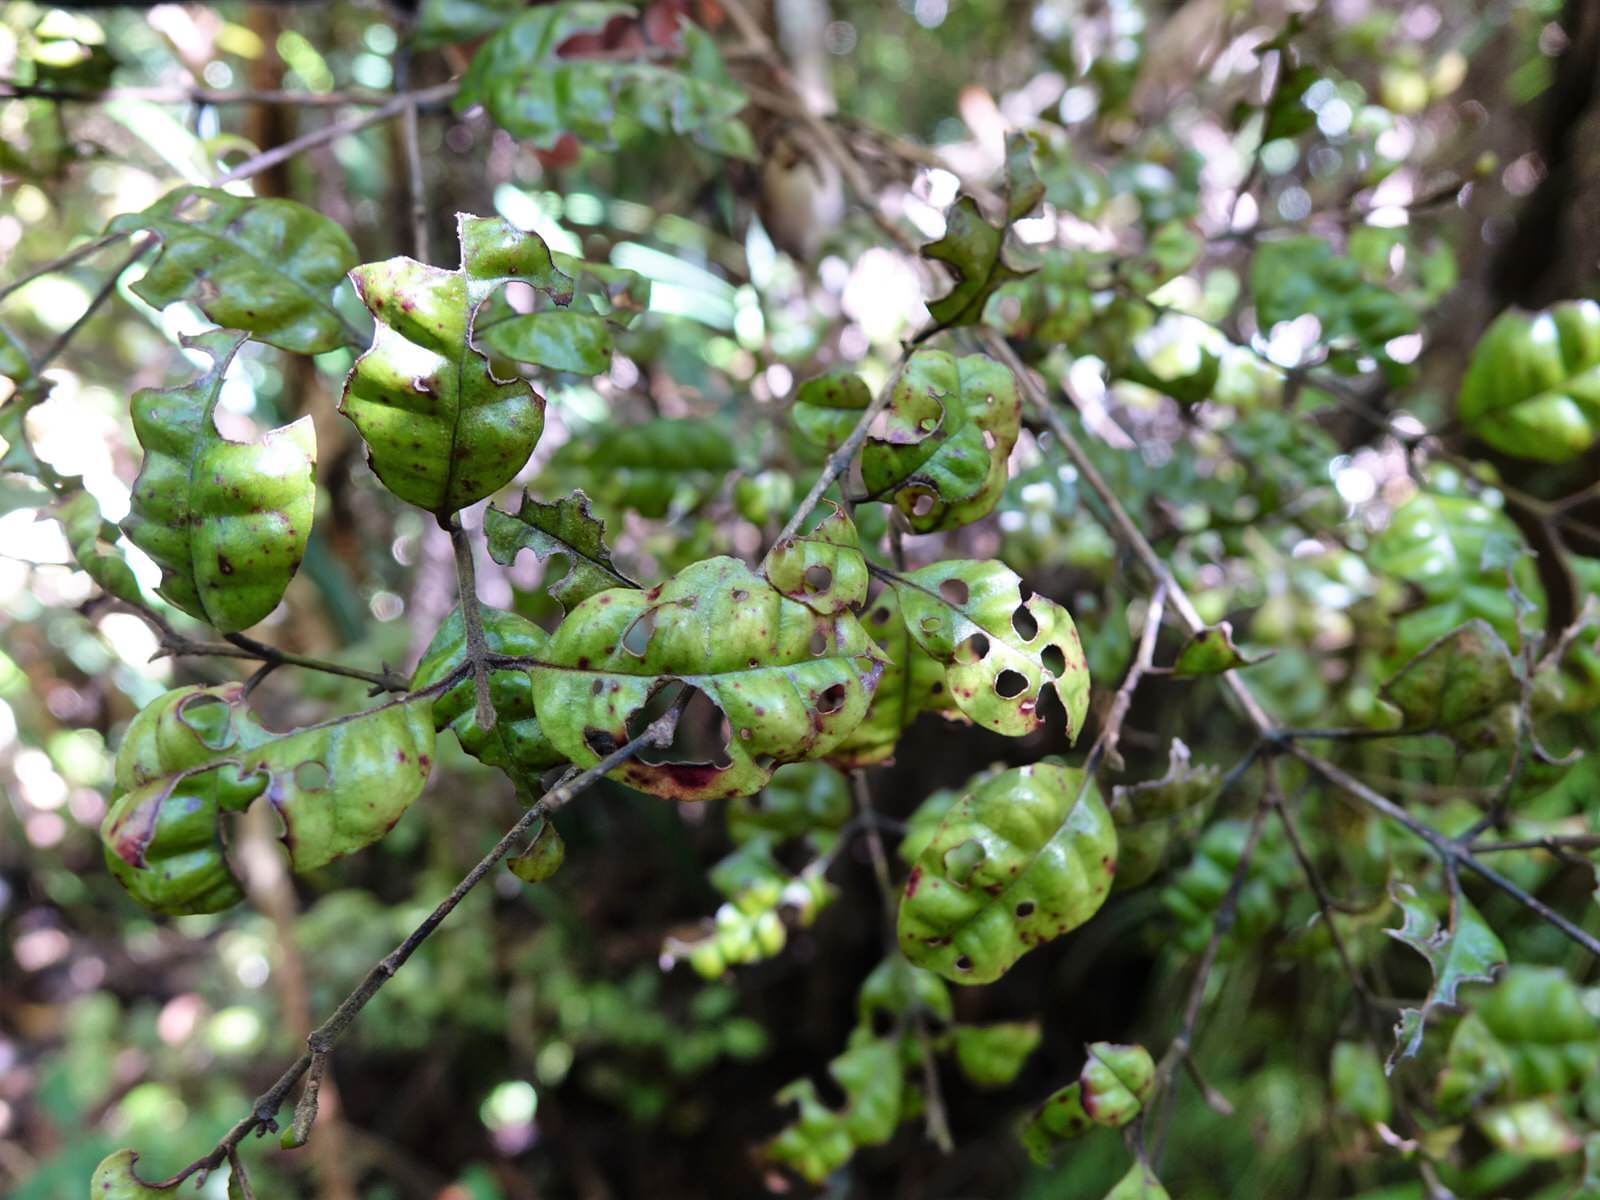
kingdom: Plantae
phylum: Tracheophyta
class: Magnoliopsida
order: Myrtales
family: Myrtaceae
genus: Lophomyrtus
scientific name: Lophomyrtus bullata
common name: Rama rama
